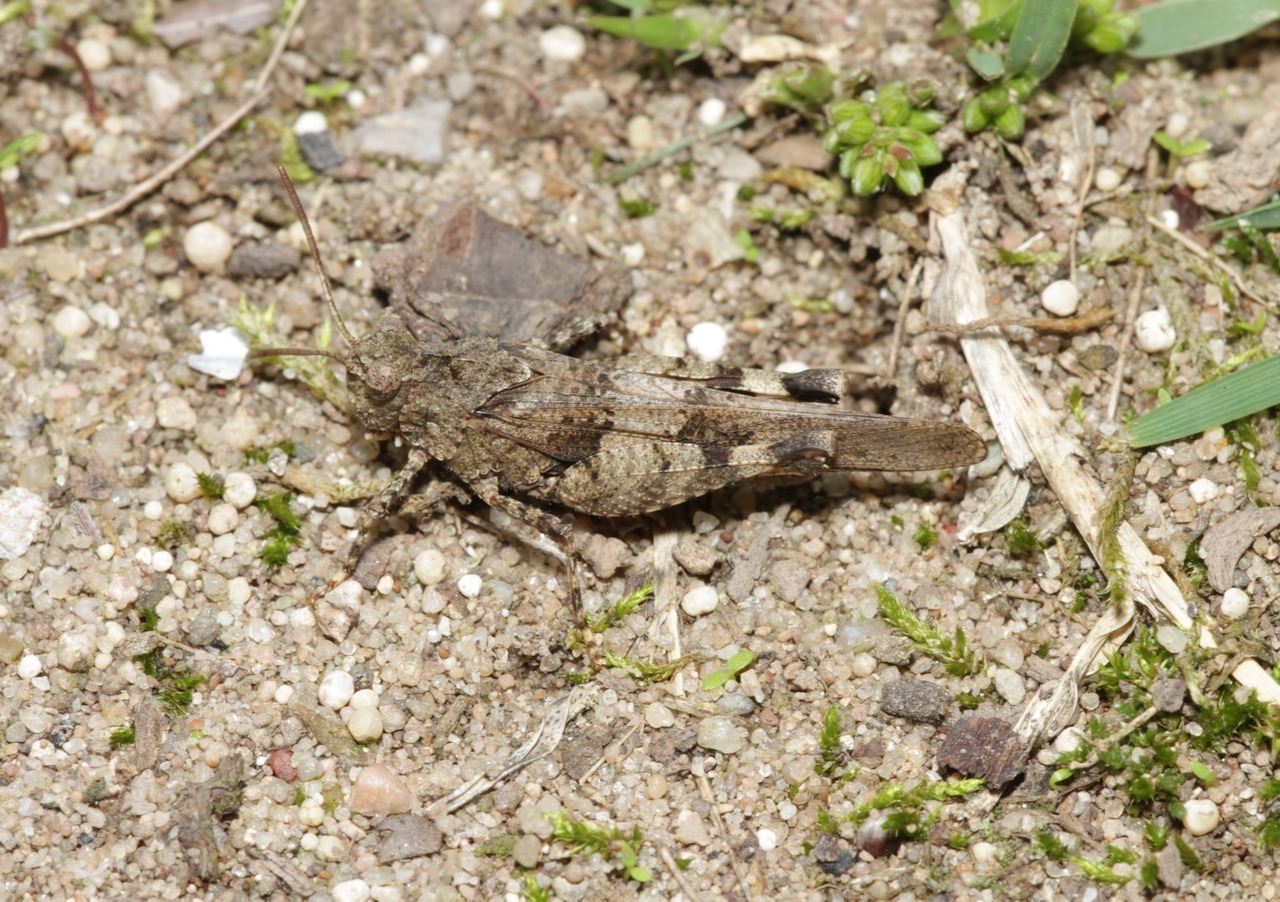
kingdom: Animalia
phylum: Arthropoda
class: Insecta
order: Orthoptera
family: Acrididae
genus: Oedipoda
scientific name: Oedipoda caerulescens
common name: Blue-winged grasshopper
